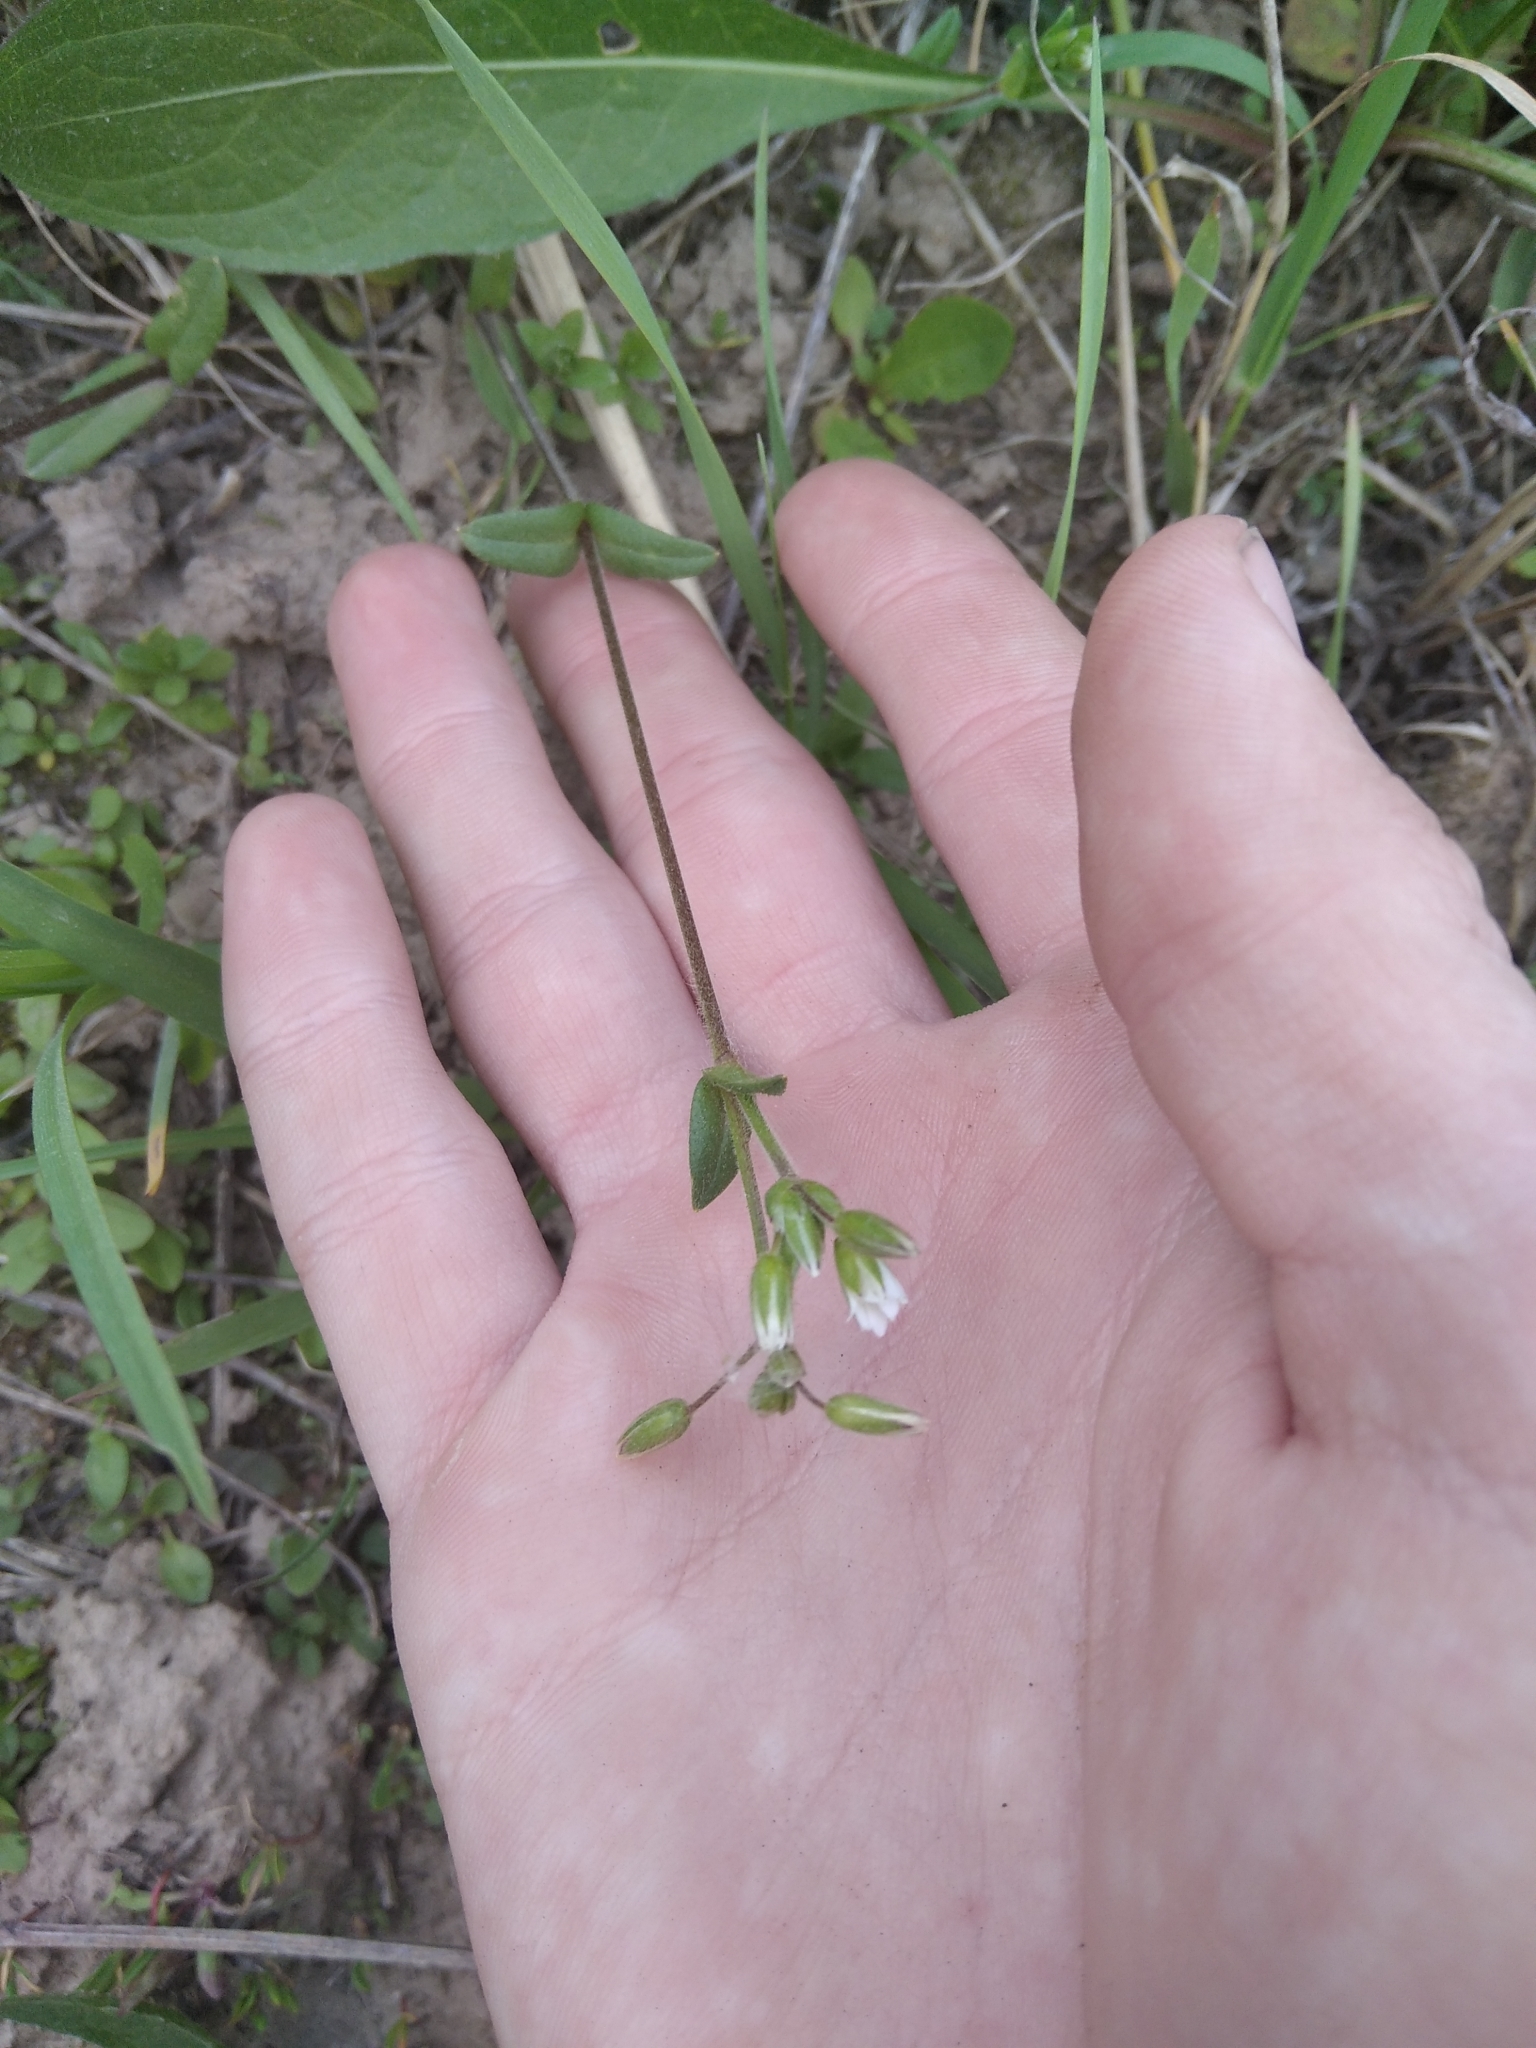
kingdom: Plantae
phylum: Tracheophyta
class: Magnoliopsida
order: Caryophyllales
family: Caryophyllaceae
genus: Cerastium
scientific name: Cerastium holosteoides
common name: Big chickweed
